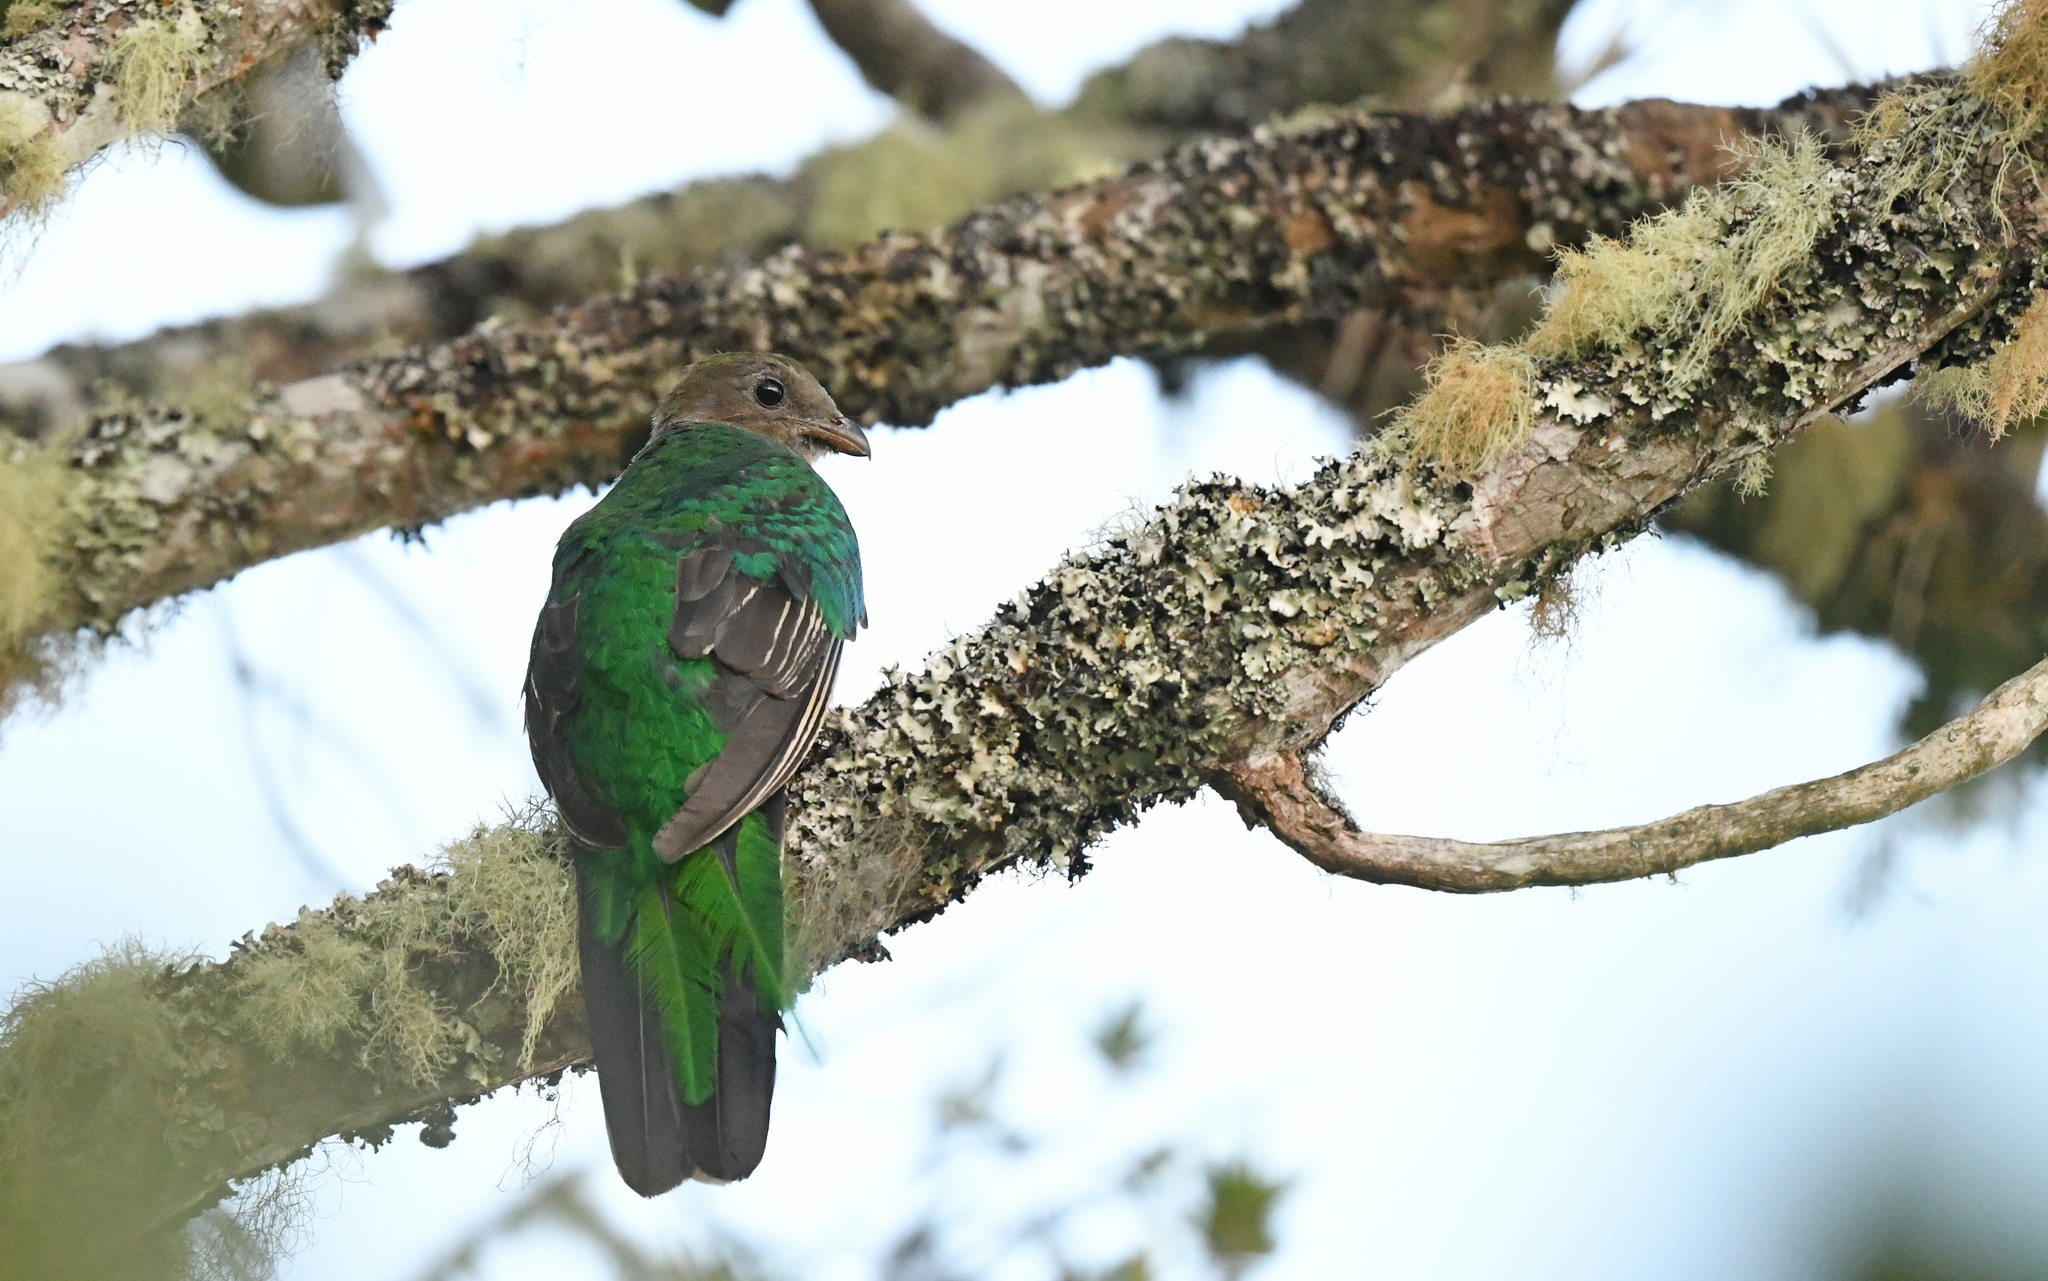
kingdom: Animalia
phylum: Chordata
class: Aves
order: Trogoniformes
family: Trogonidae
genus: Pharomachrus
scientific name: Pharomachrus fulgidus
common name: White-tipped quetzal
